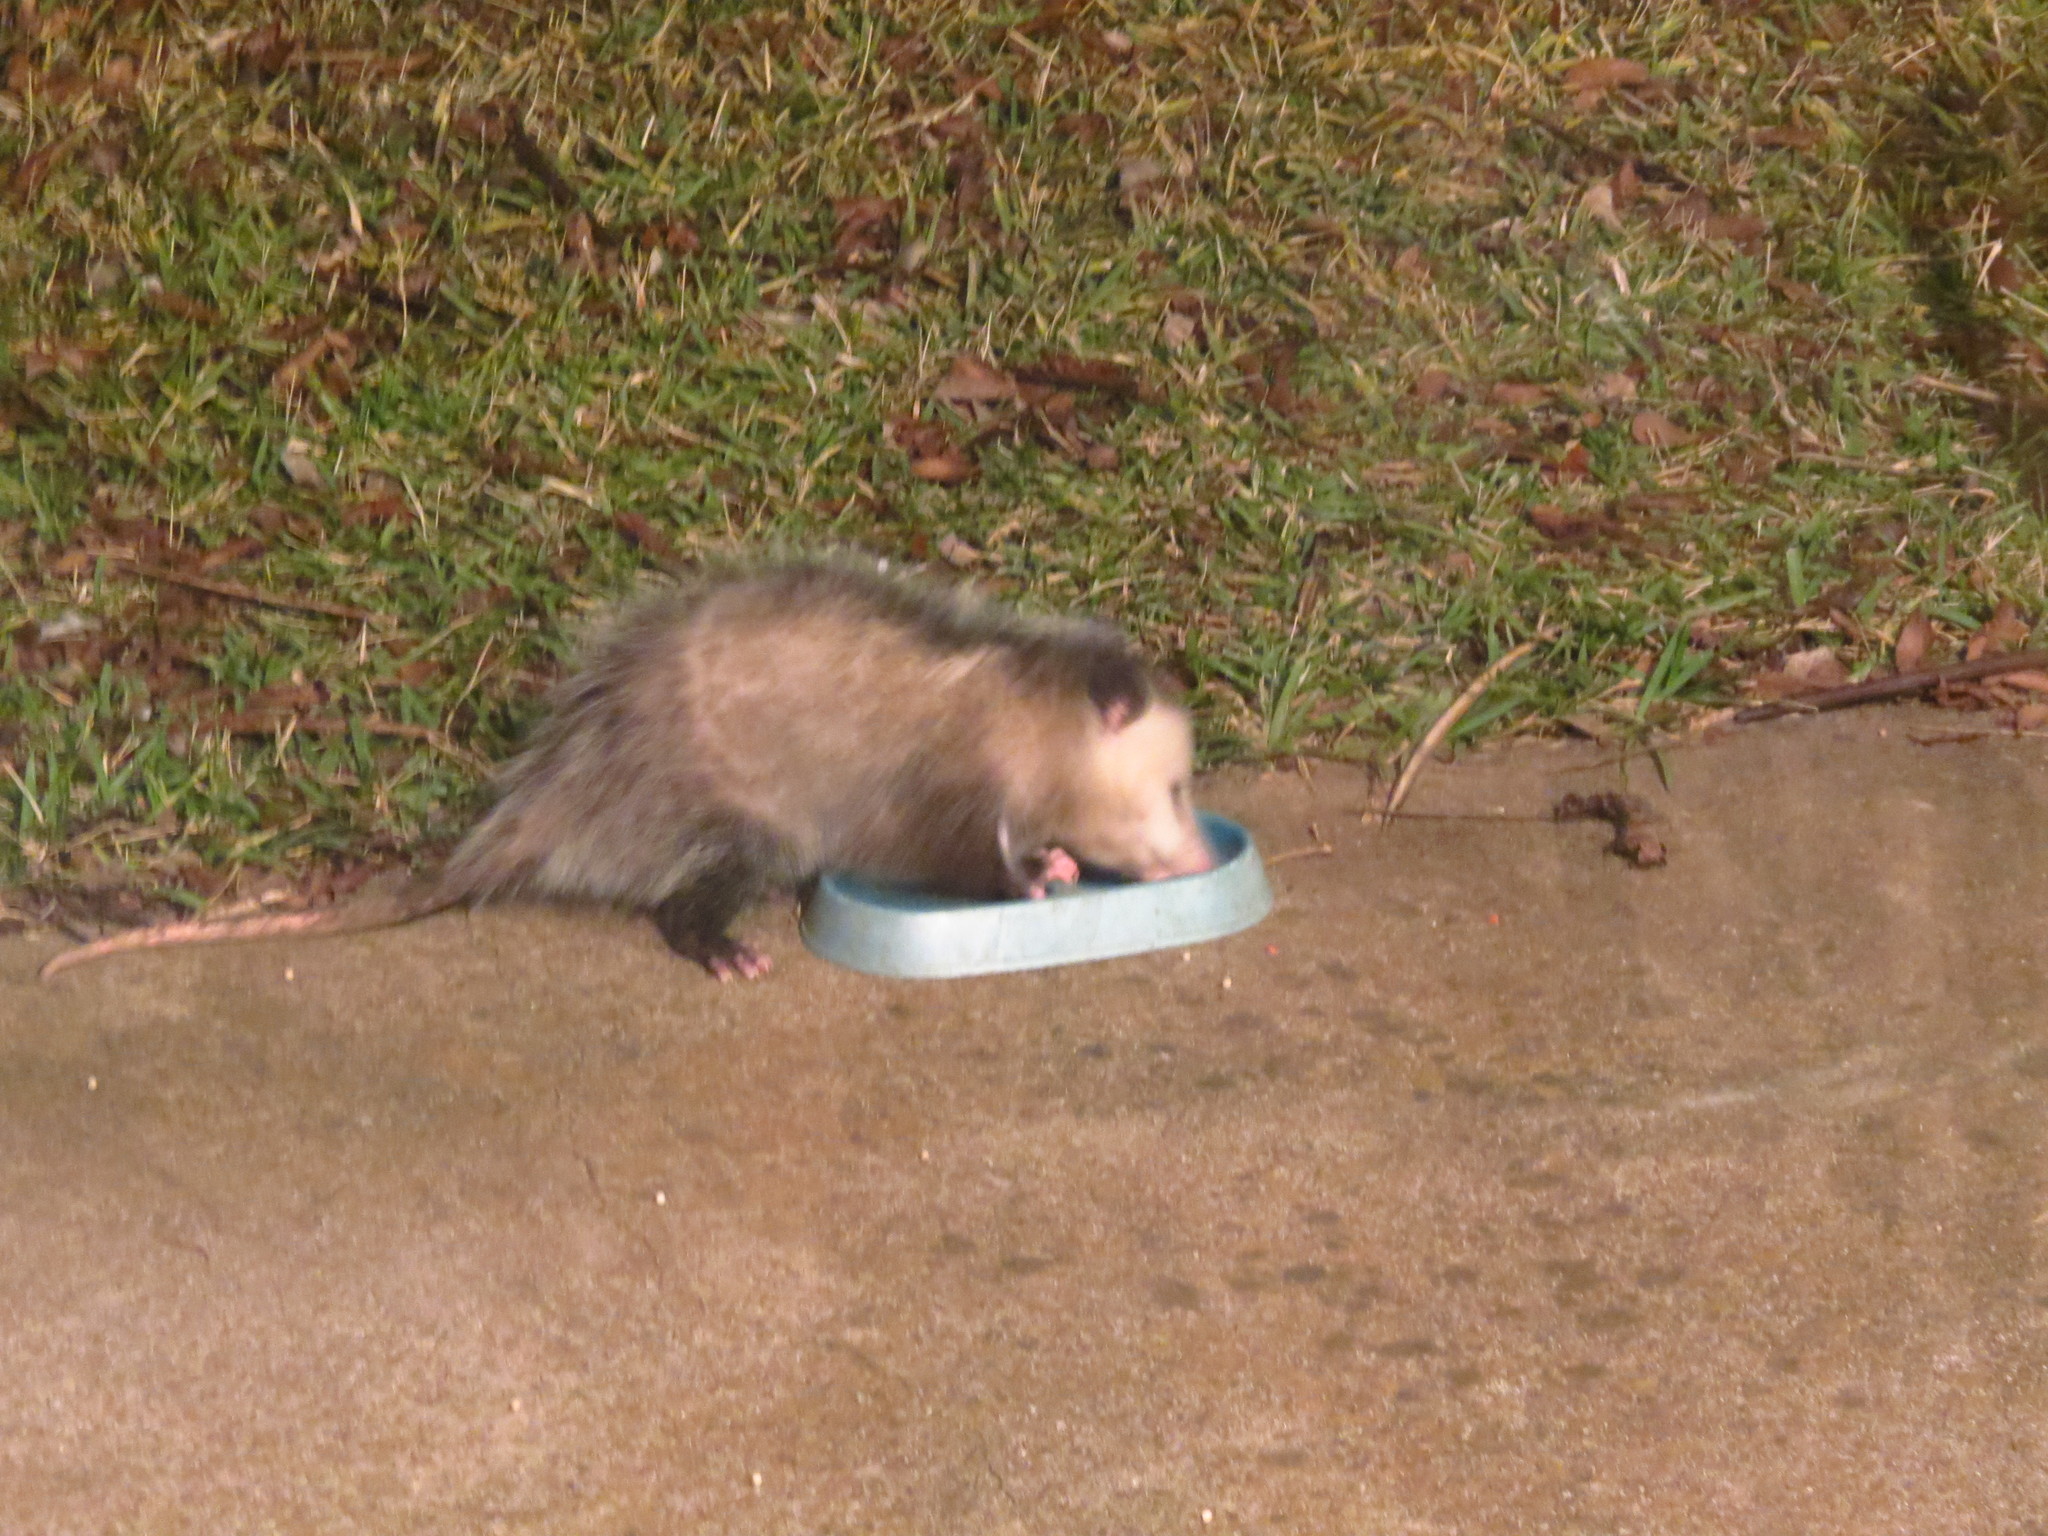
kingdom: Animalia
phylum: Chordata
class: Mammalia
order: Didelphimorphia
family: Didelphidae
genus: Didelphis
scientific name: Didelphis virginiana
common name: Virginia opossum
